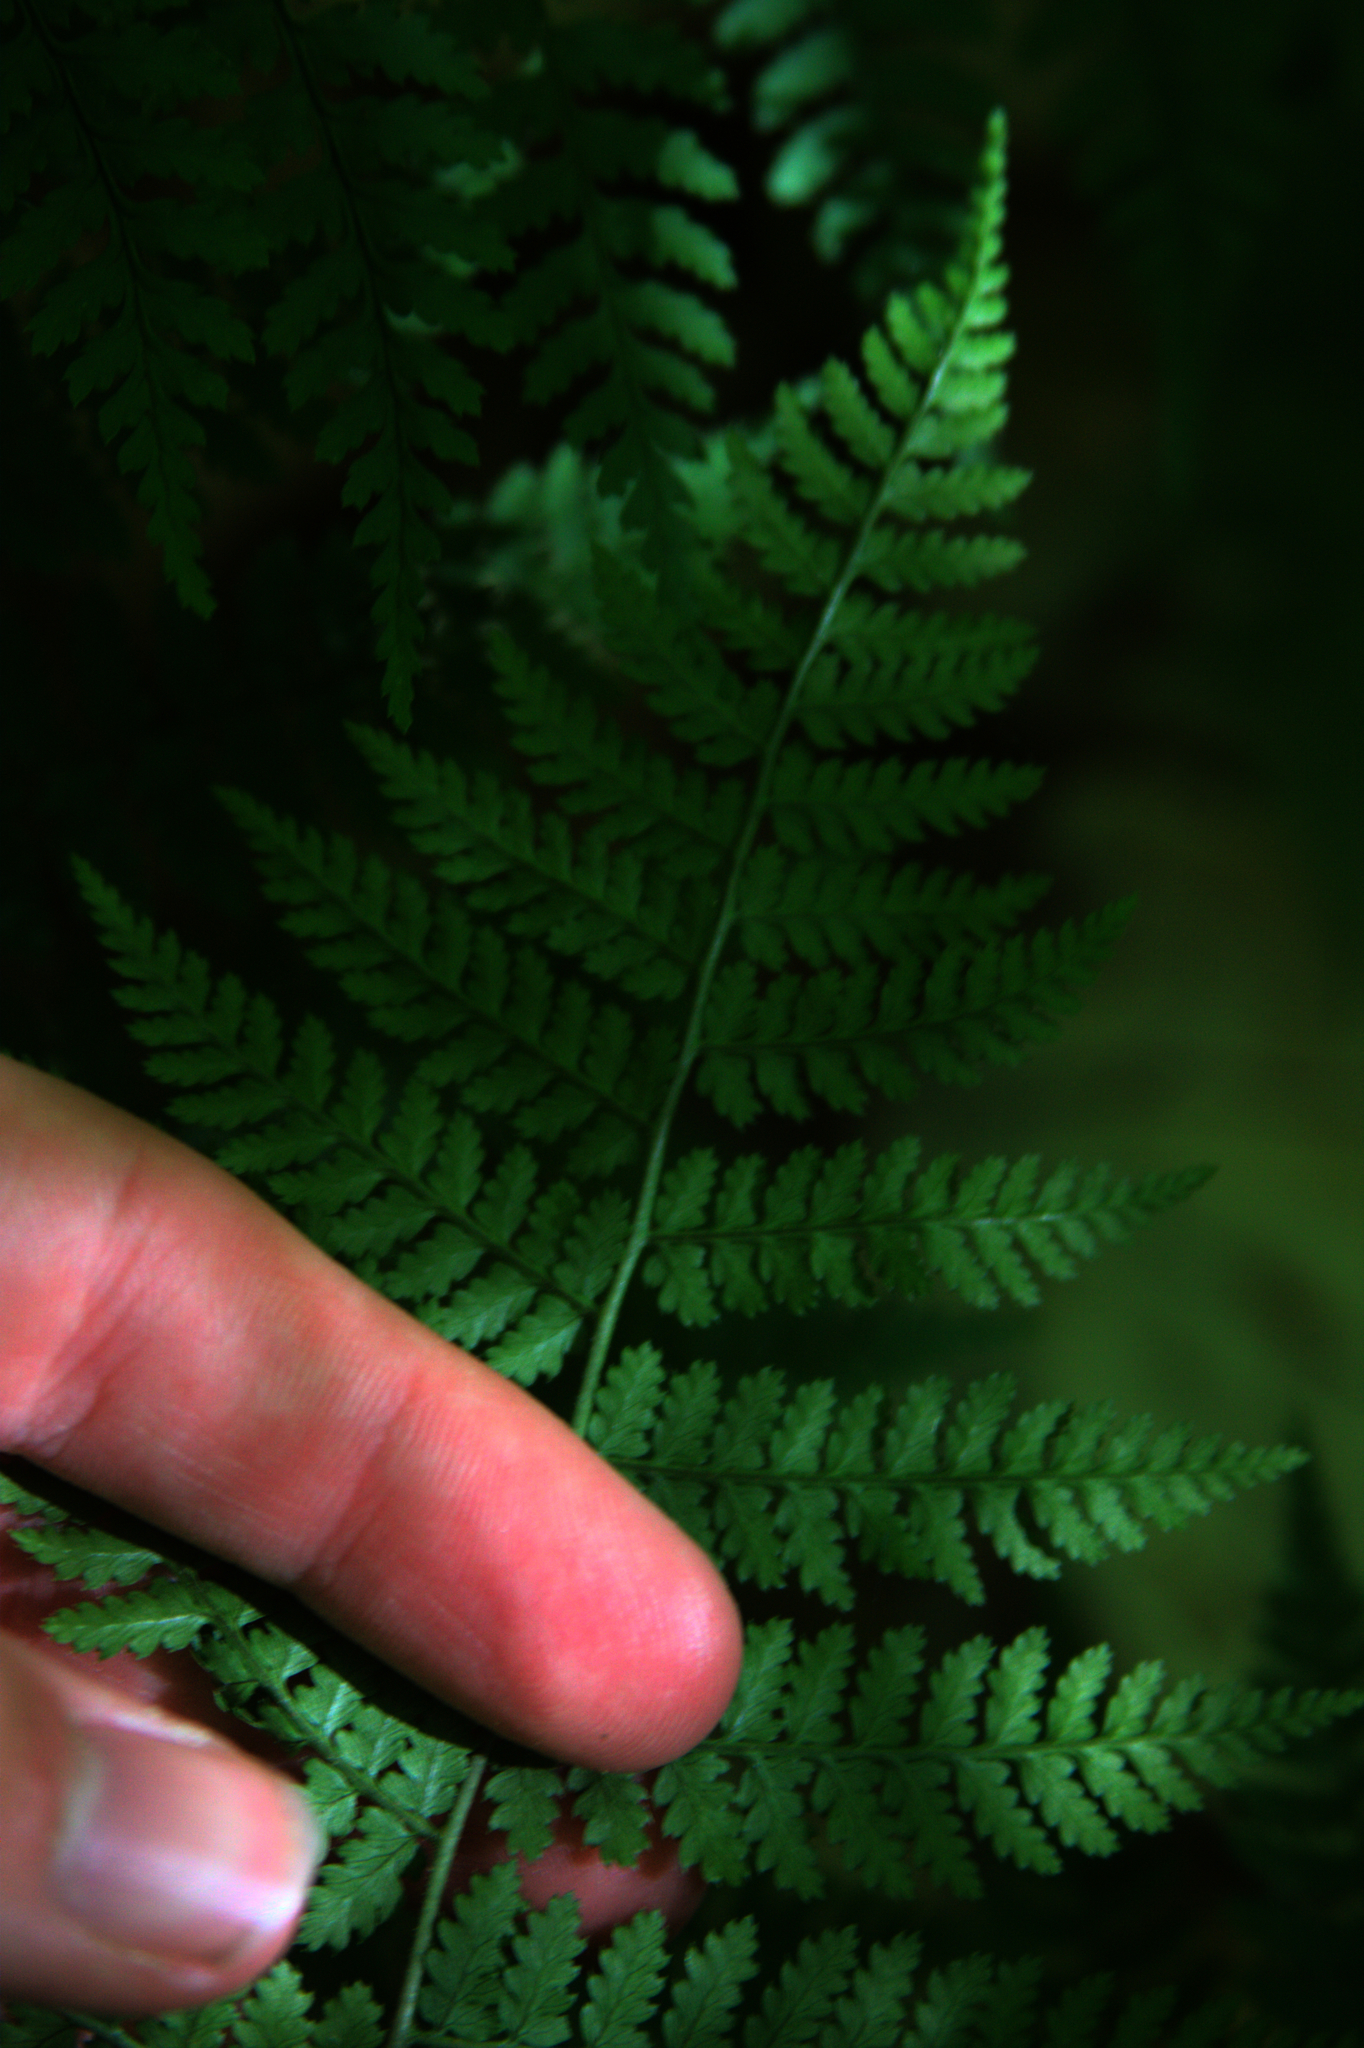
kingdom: Plantae
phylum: Tracheophyta
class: Polypodiopsida
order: Polypodiales
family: Dryopteridaceae
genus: Dryopteris
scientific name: Dryopteris intermedia
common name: Evergreen wood fern
